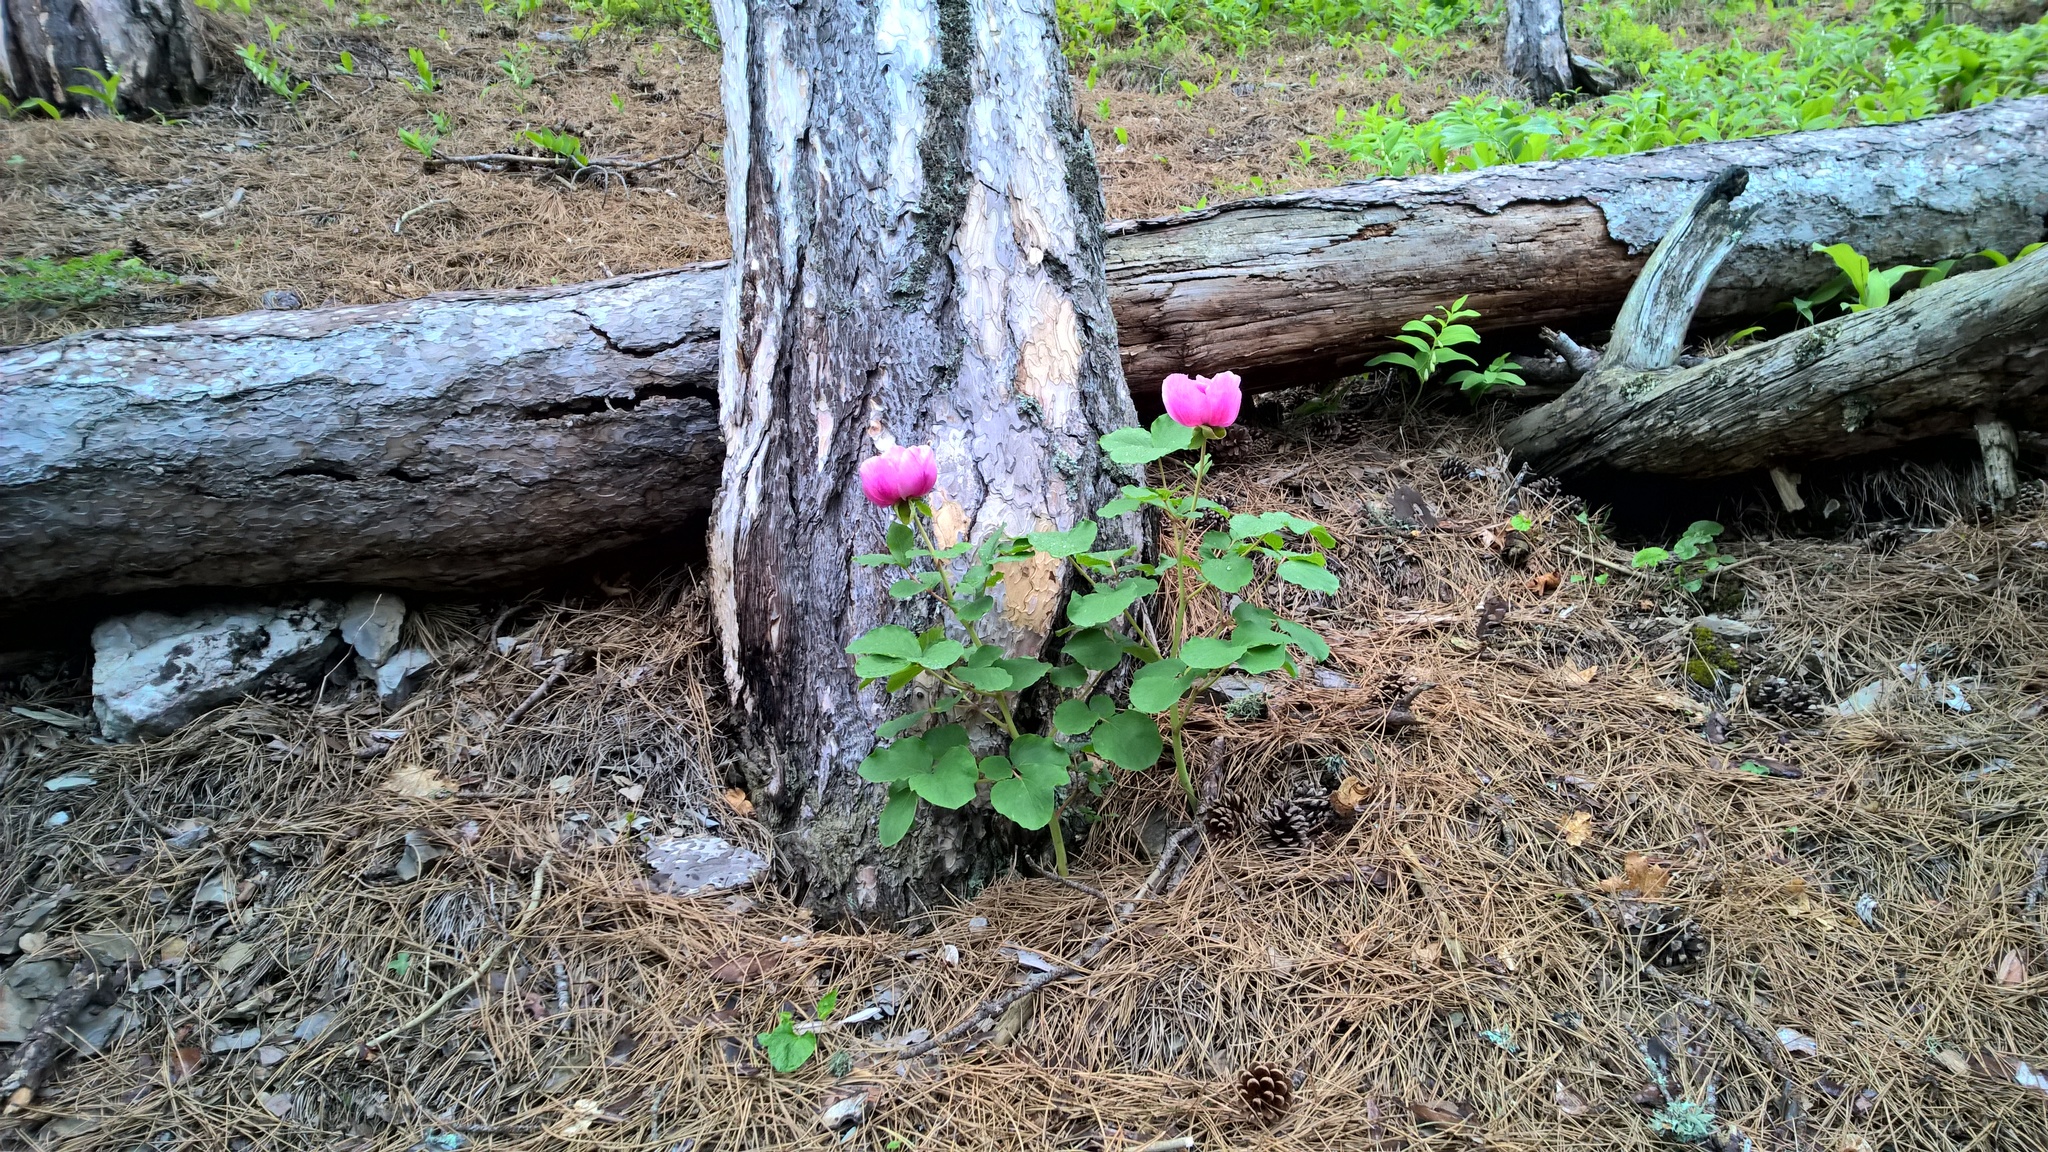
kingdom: Plantae
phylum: Tracheophyta
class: Magnoliopsida
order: Saxifragales
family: Paeoniaceae
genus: Paeonia
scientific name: Paeonia daurica
